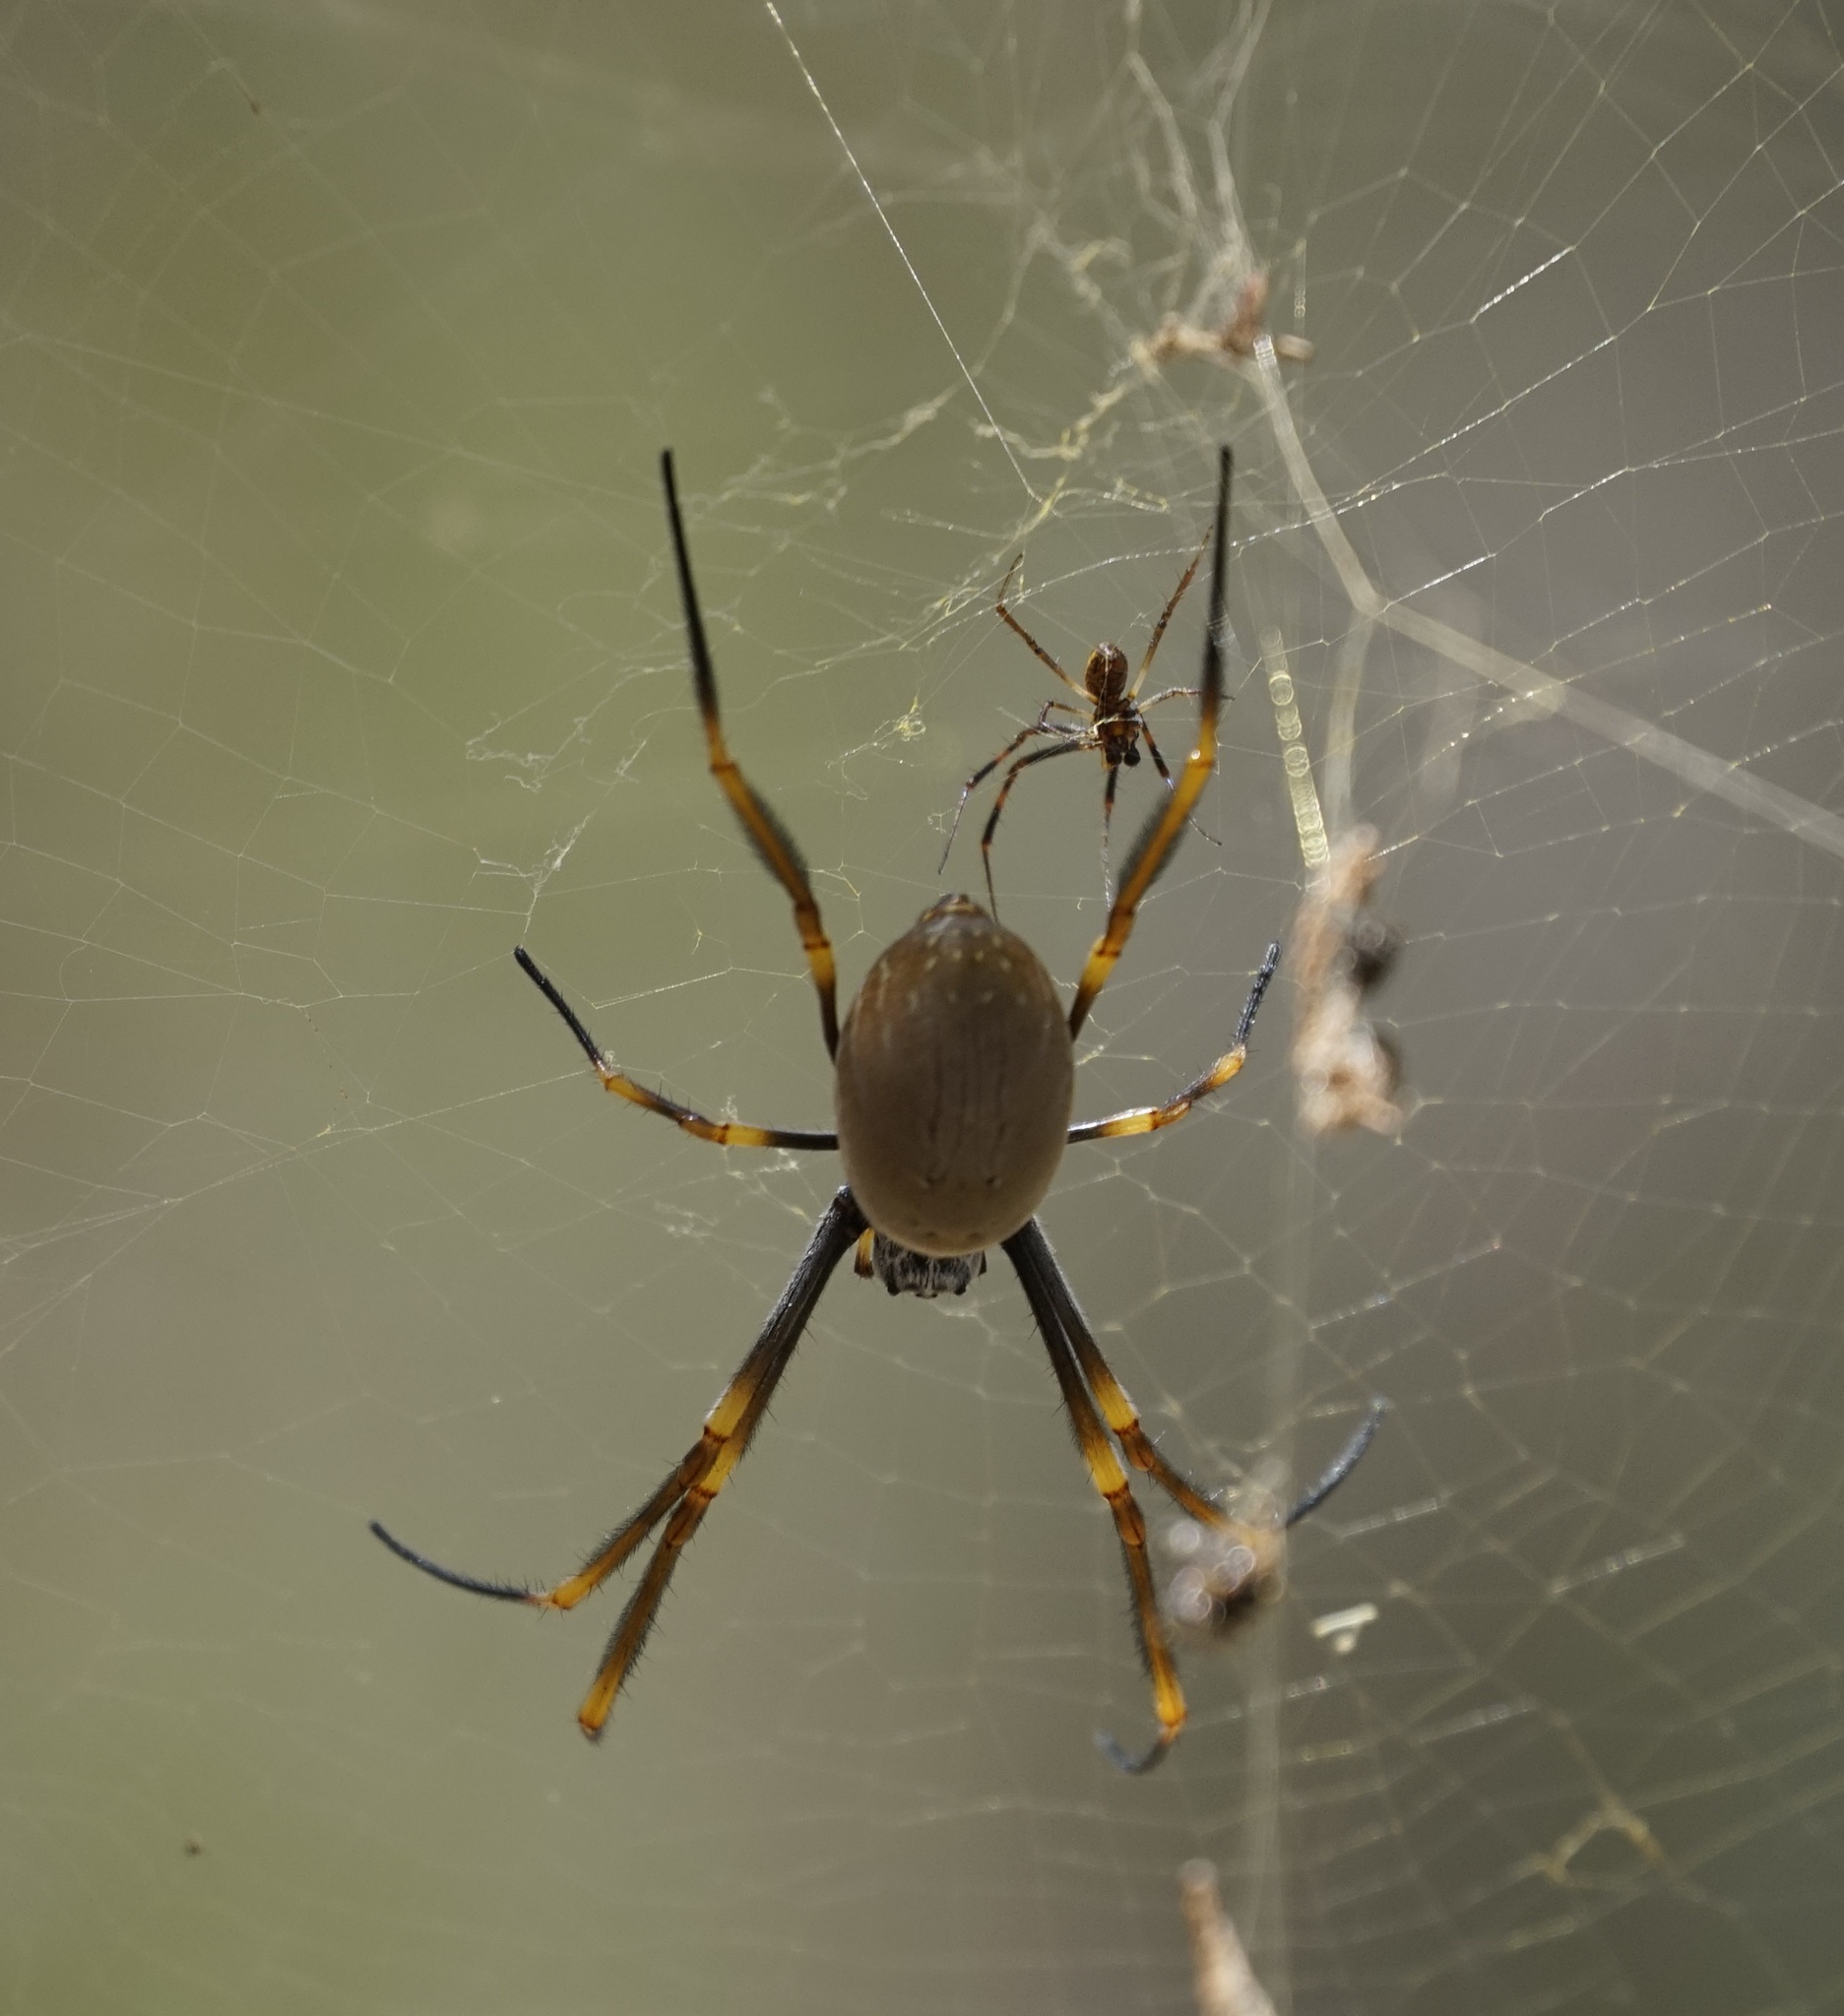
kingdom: Animalia
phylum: Arthropoda
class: Arachnida
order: Araneae
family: Araneidae
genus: Trichonephila
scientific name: Trichonephila plumipes
